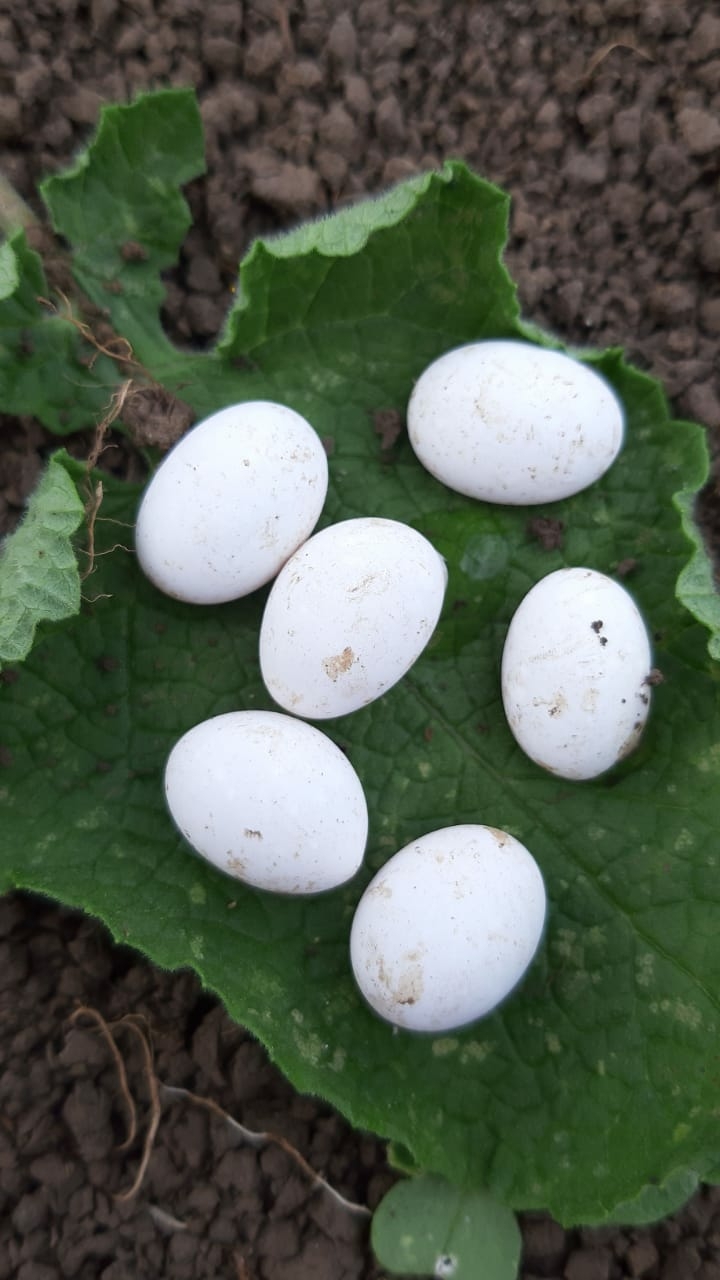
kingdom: Animalia
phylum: Chordata
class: Squamata
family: Lacertidae
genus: Lacerta
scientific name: Lacerta agilis
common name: Sand lizard
